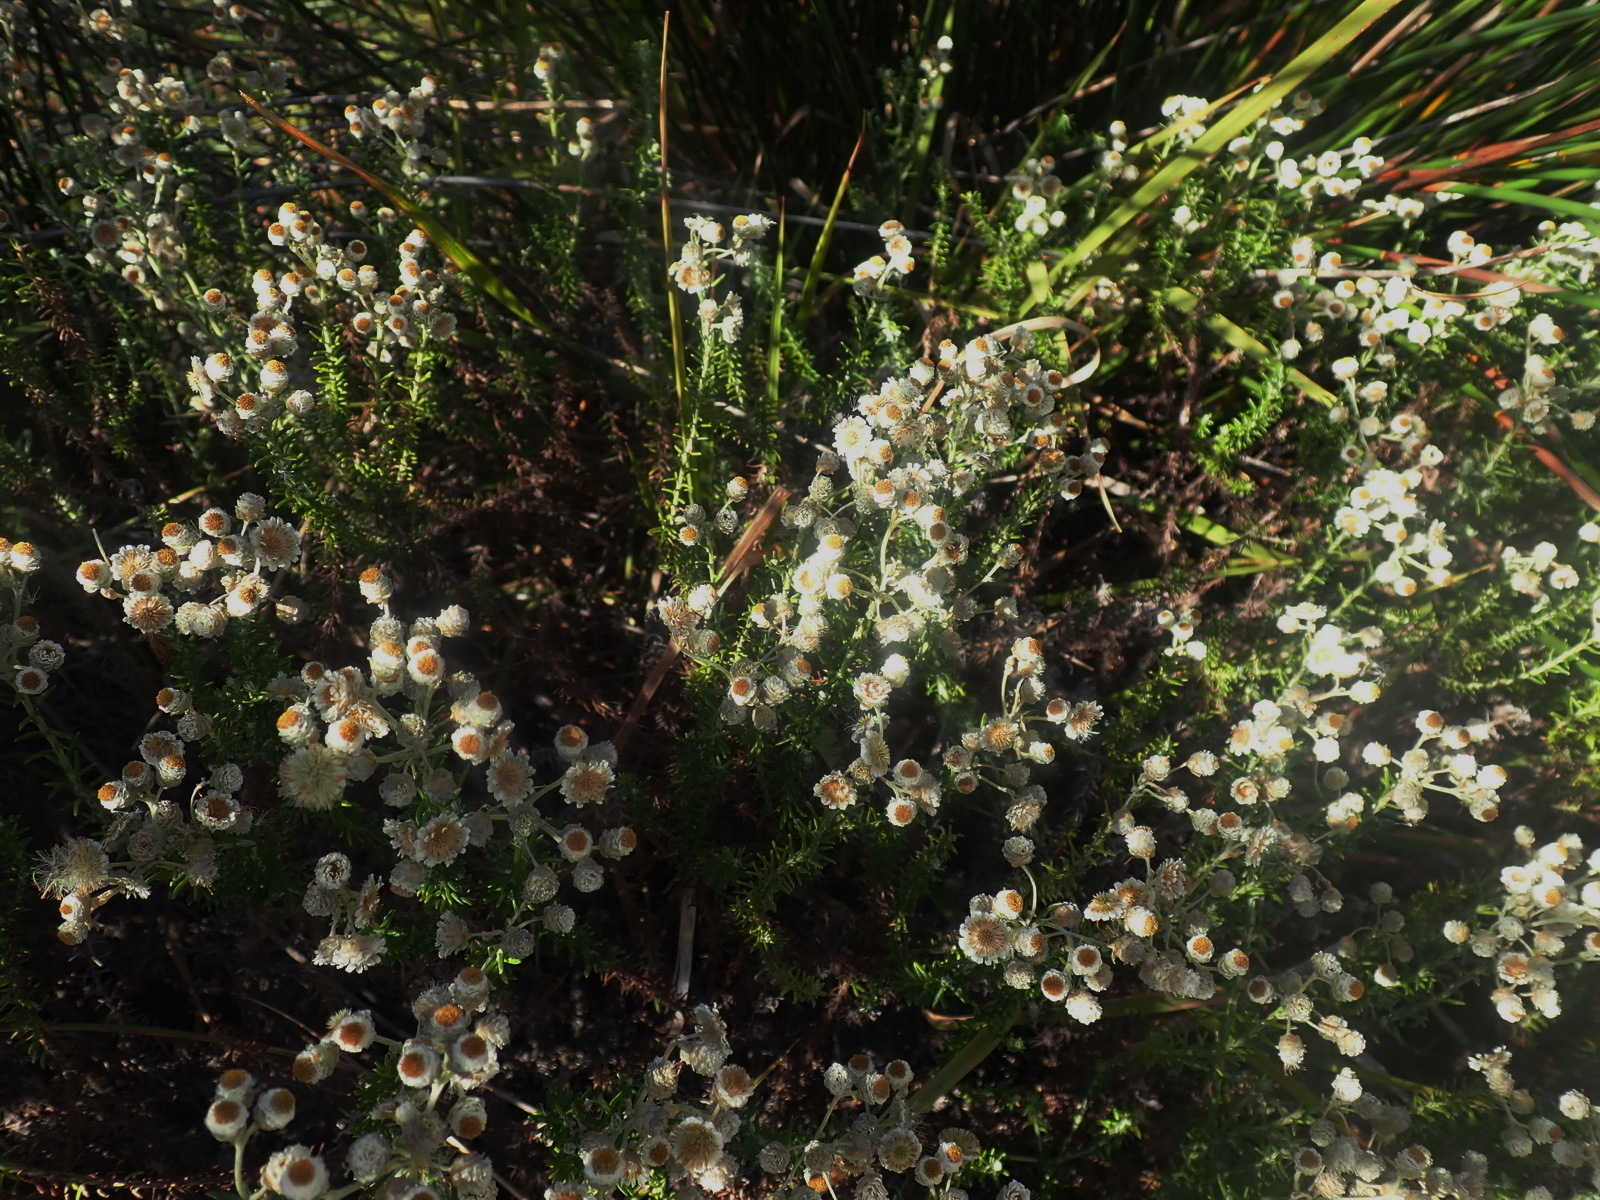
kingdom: Plantae
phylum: Tracheophyta
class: Magnoliopsida
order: Asterales
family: Asteraceae
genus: Helichrysum
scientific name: Helichrysum teretifolium
